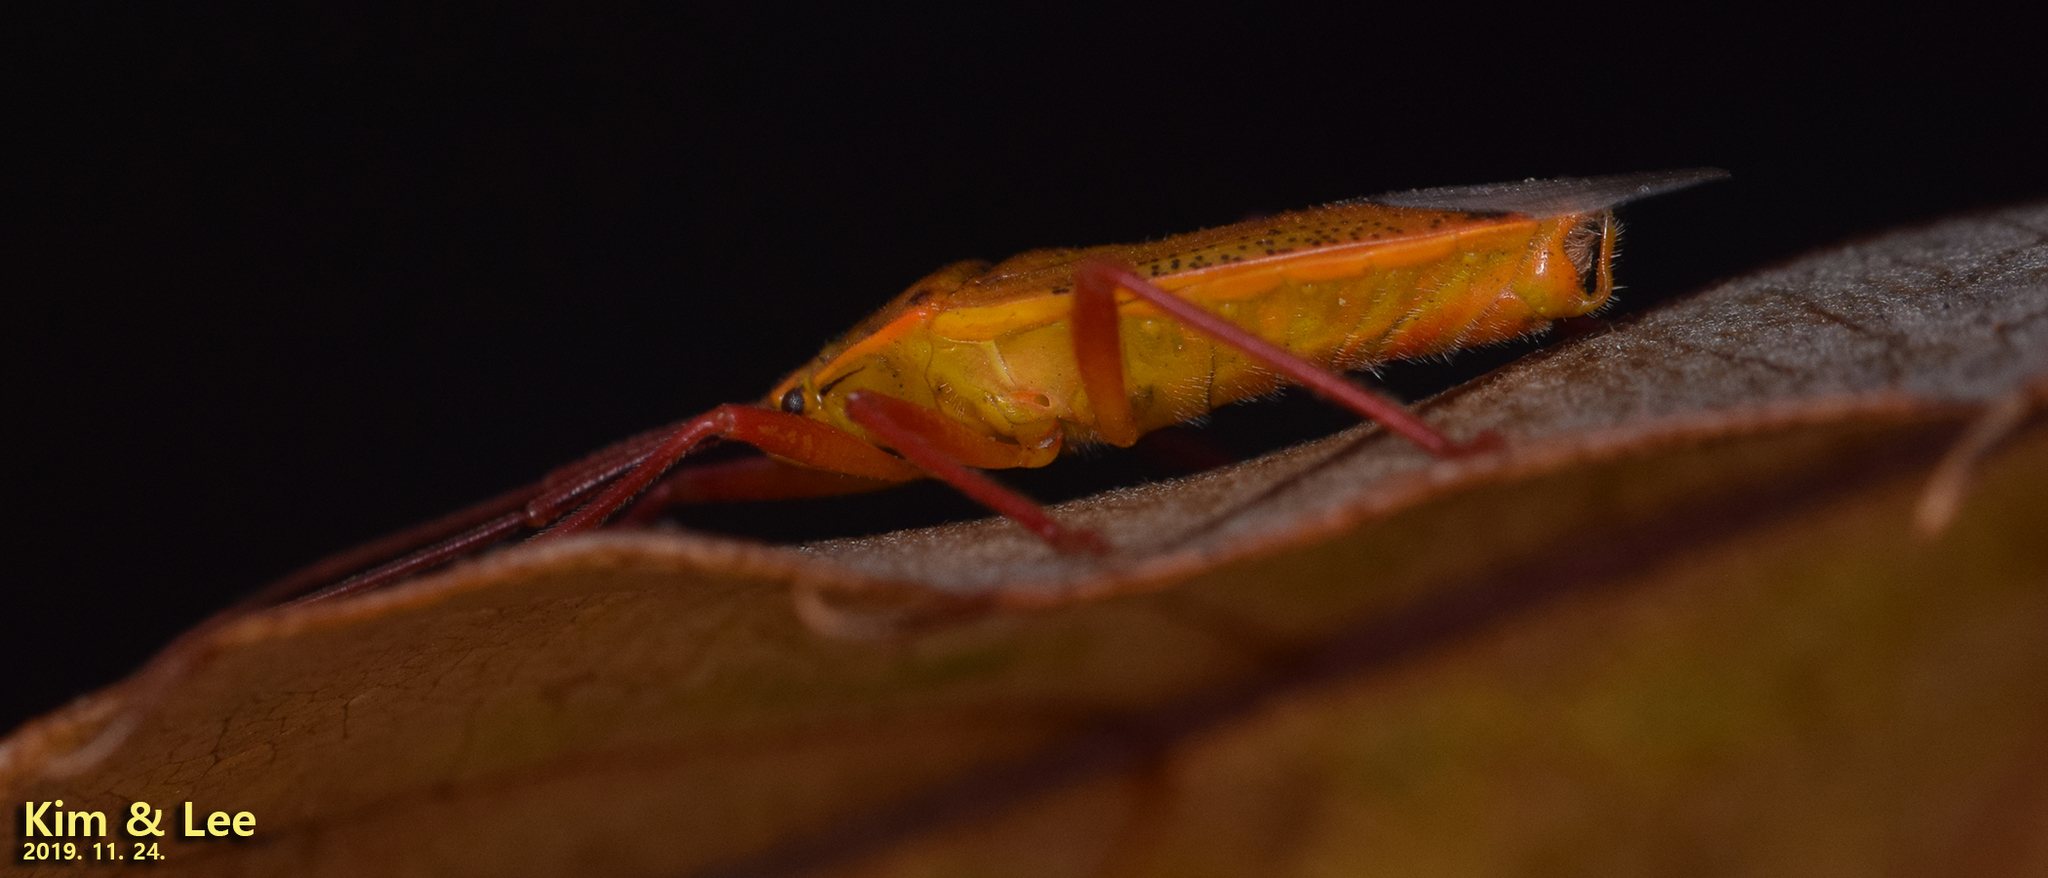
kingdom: Animalia
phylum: Arthropoda
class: Insecta
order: Hemiptera
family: Urostylididae
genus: Urostylis
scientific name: Urostylis hubeiensis
